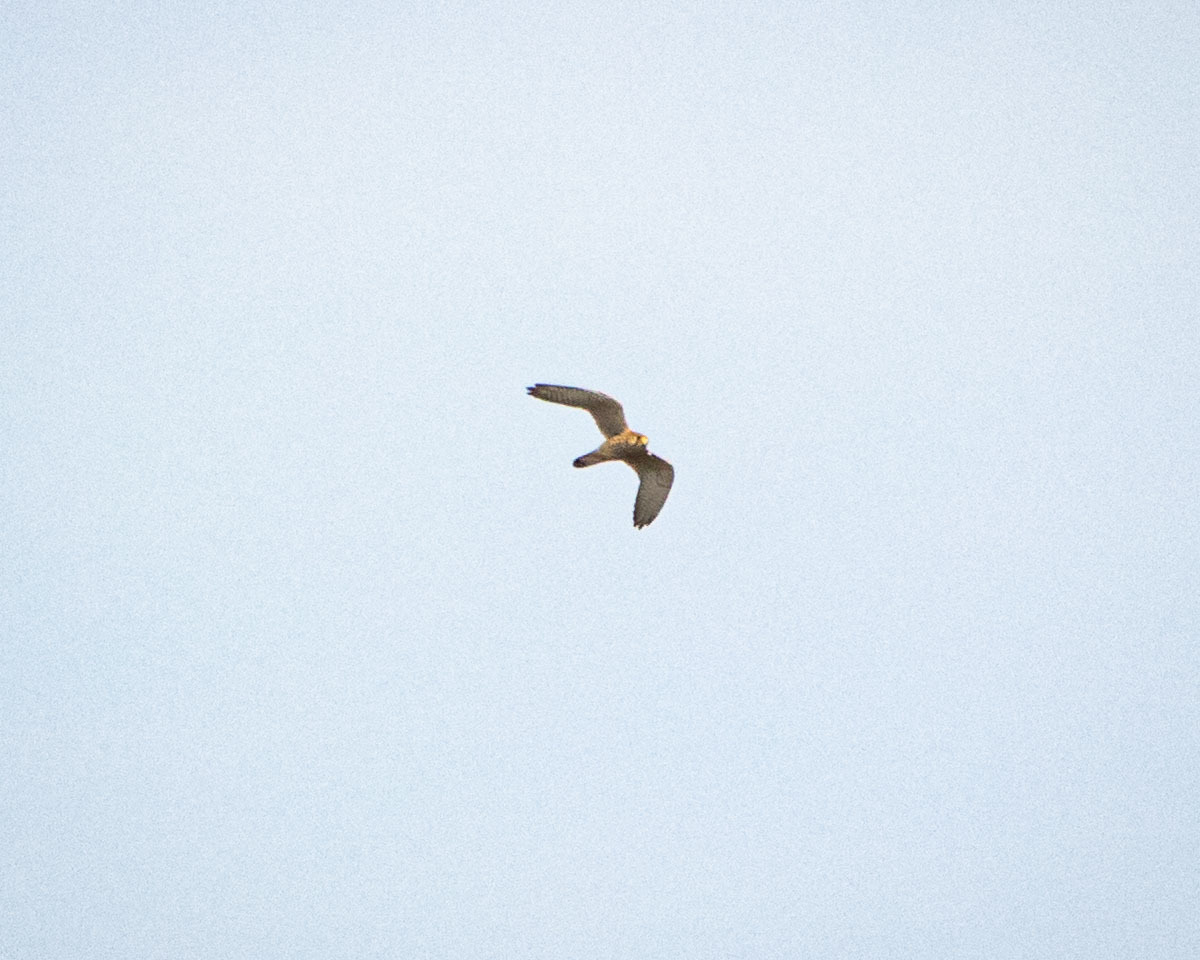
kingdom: Animalia
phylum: Chordata
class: Aves
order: Falconiformes
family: Falconidae
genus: Falco
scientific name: Falco tinnunculus
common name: Common kestrel
